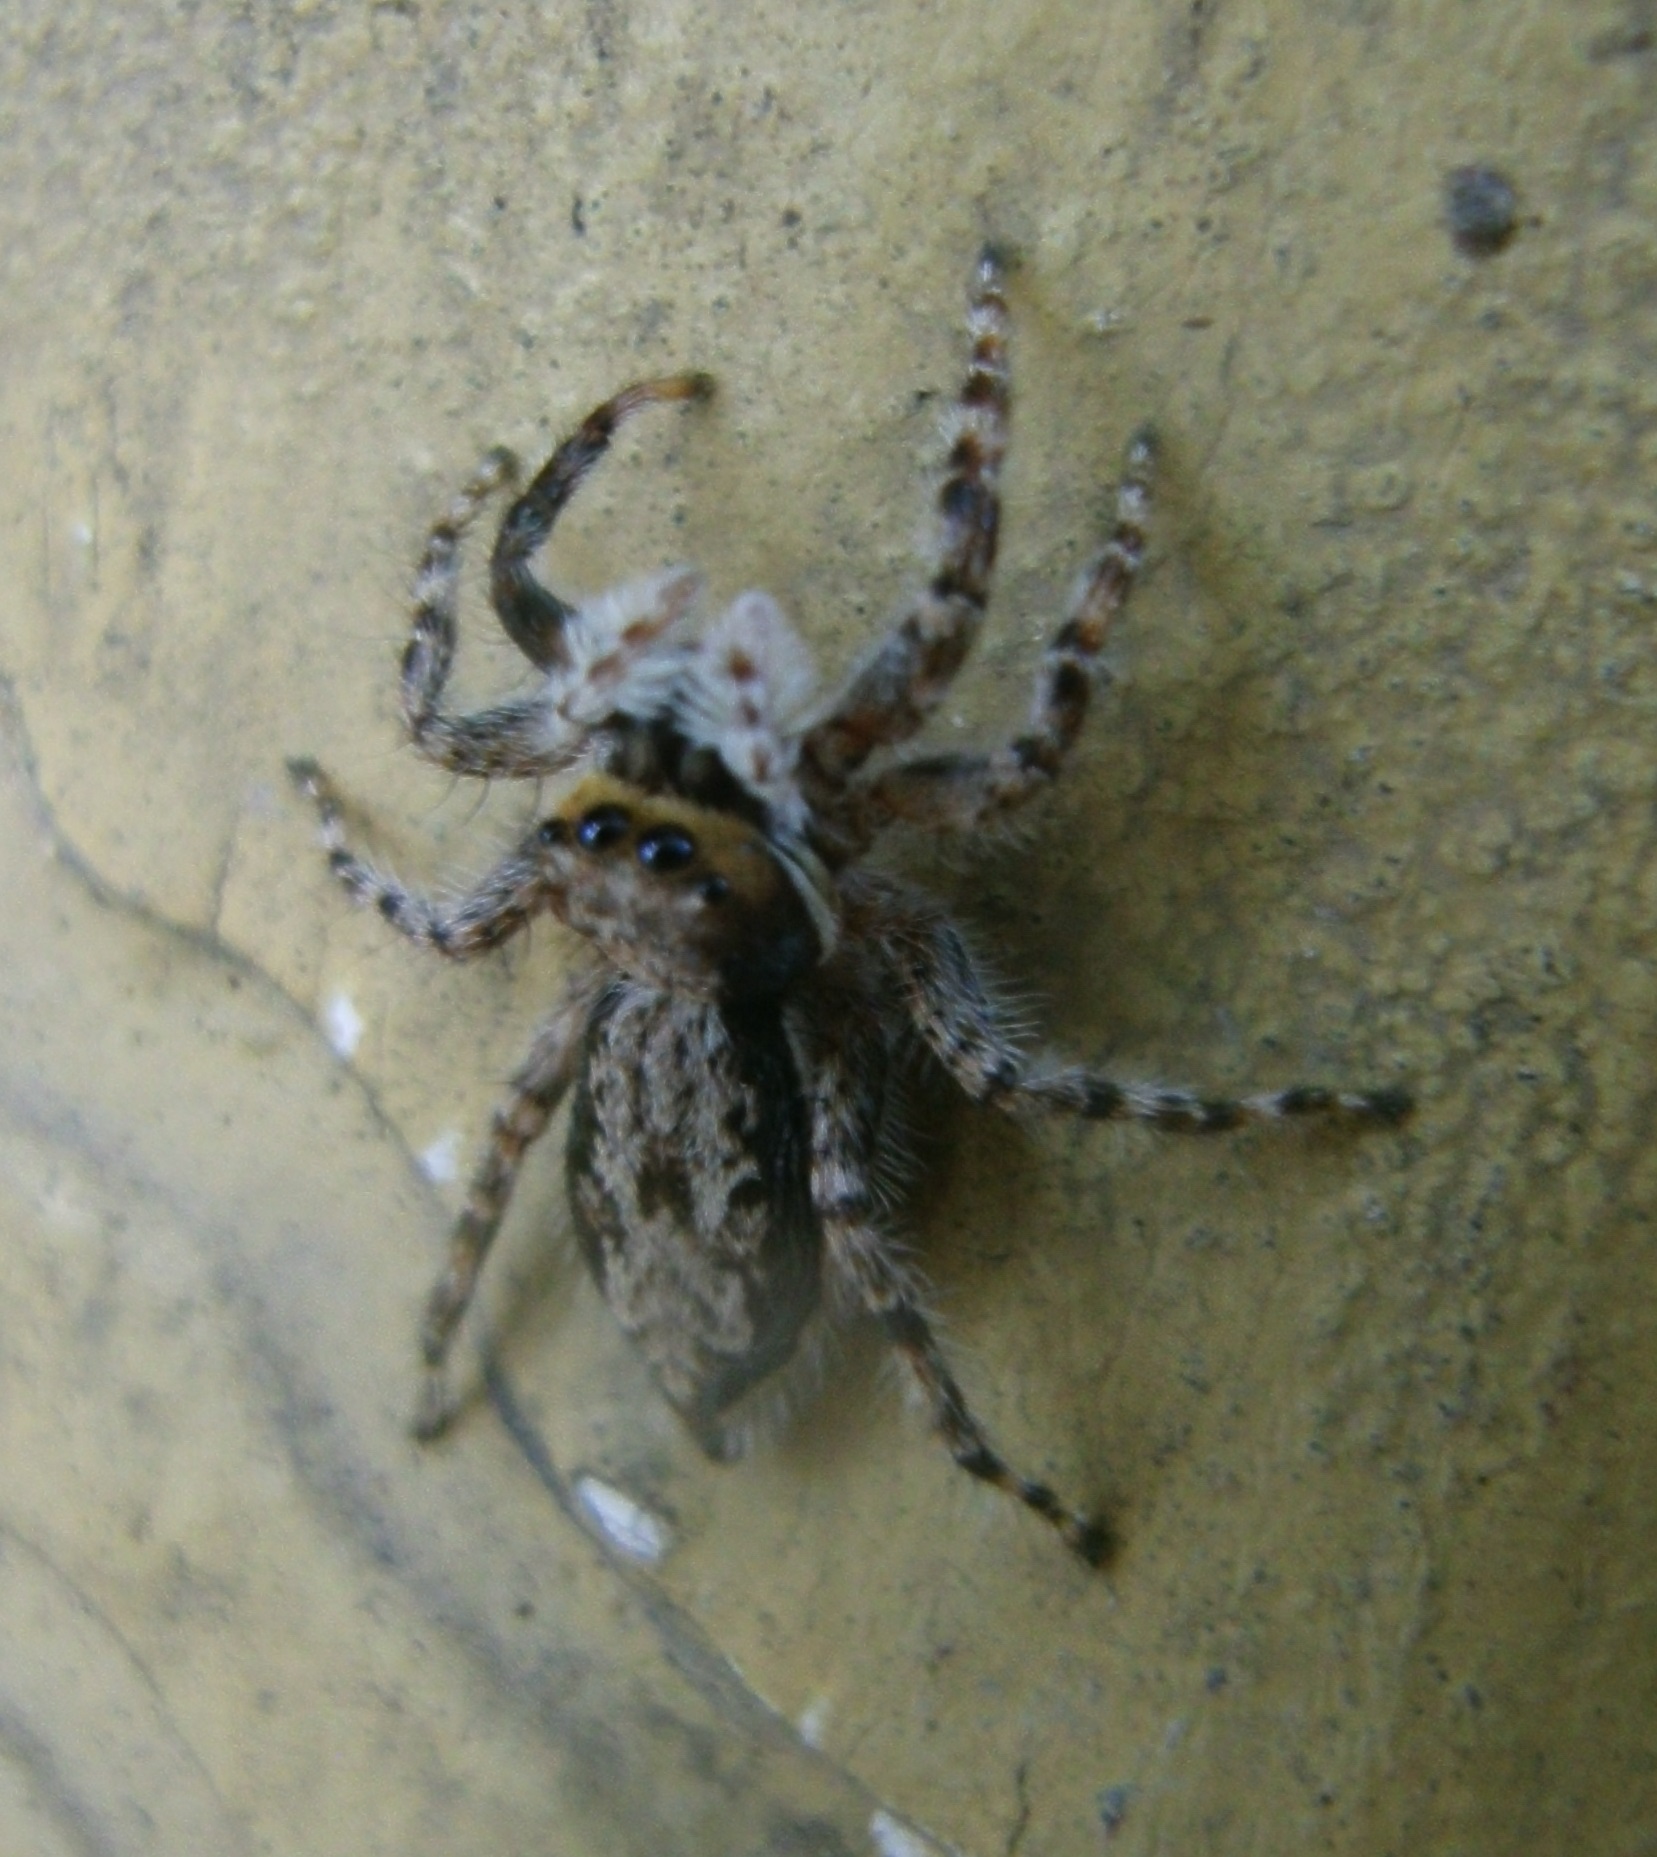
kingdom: Animalia
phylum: Arthropoda
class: Arachnida
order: Araneae
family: Salticidae
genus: Menemerus
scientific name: Menemerus bivittatus
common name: Gray wall jumper
